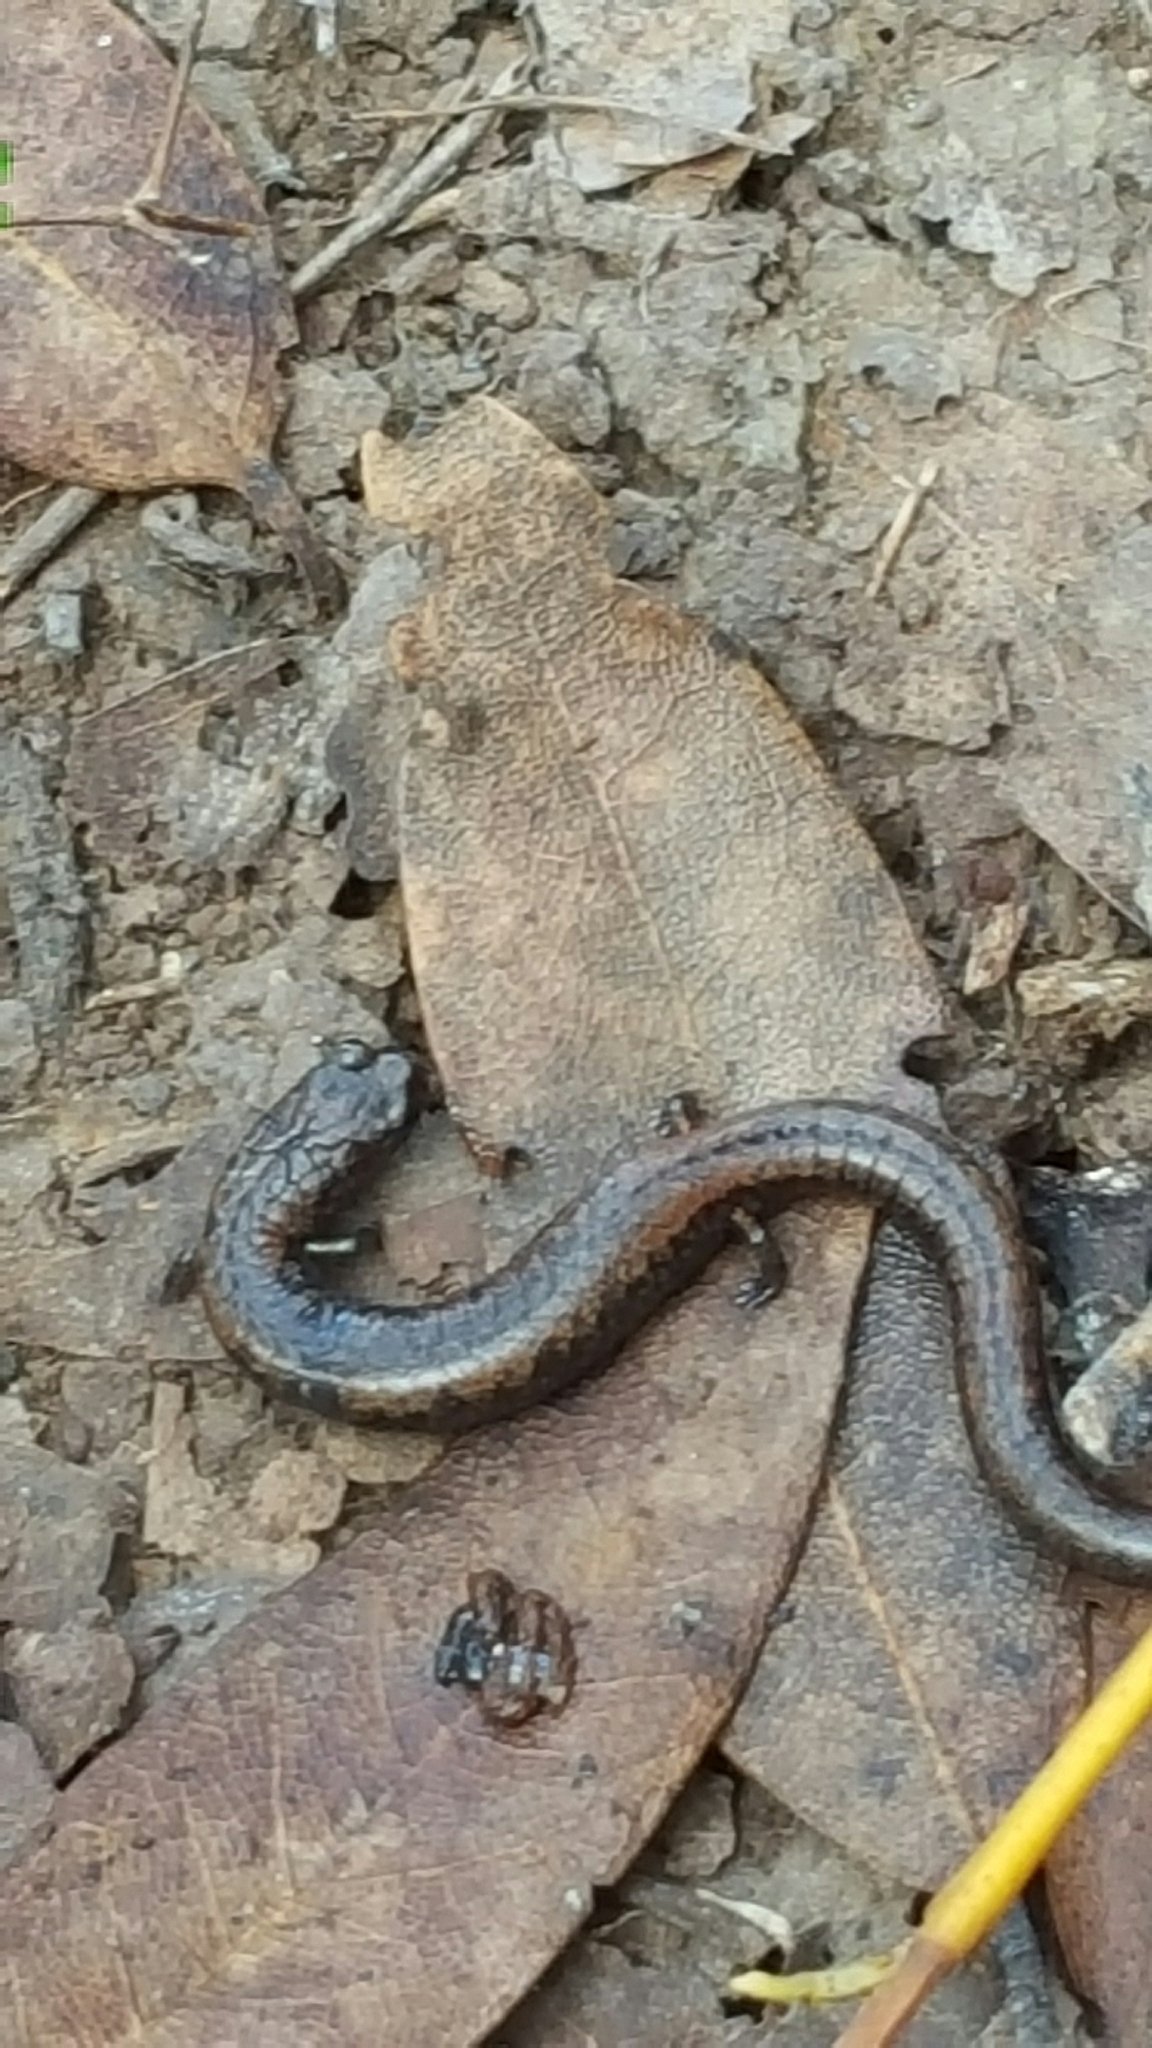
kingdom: Animalia
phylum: Chordata
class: Amphibia
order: Caudata
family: Plethodontidae
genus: Batrachoseps
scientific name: Batrachoseps attenuatus
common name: California slender salamander
